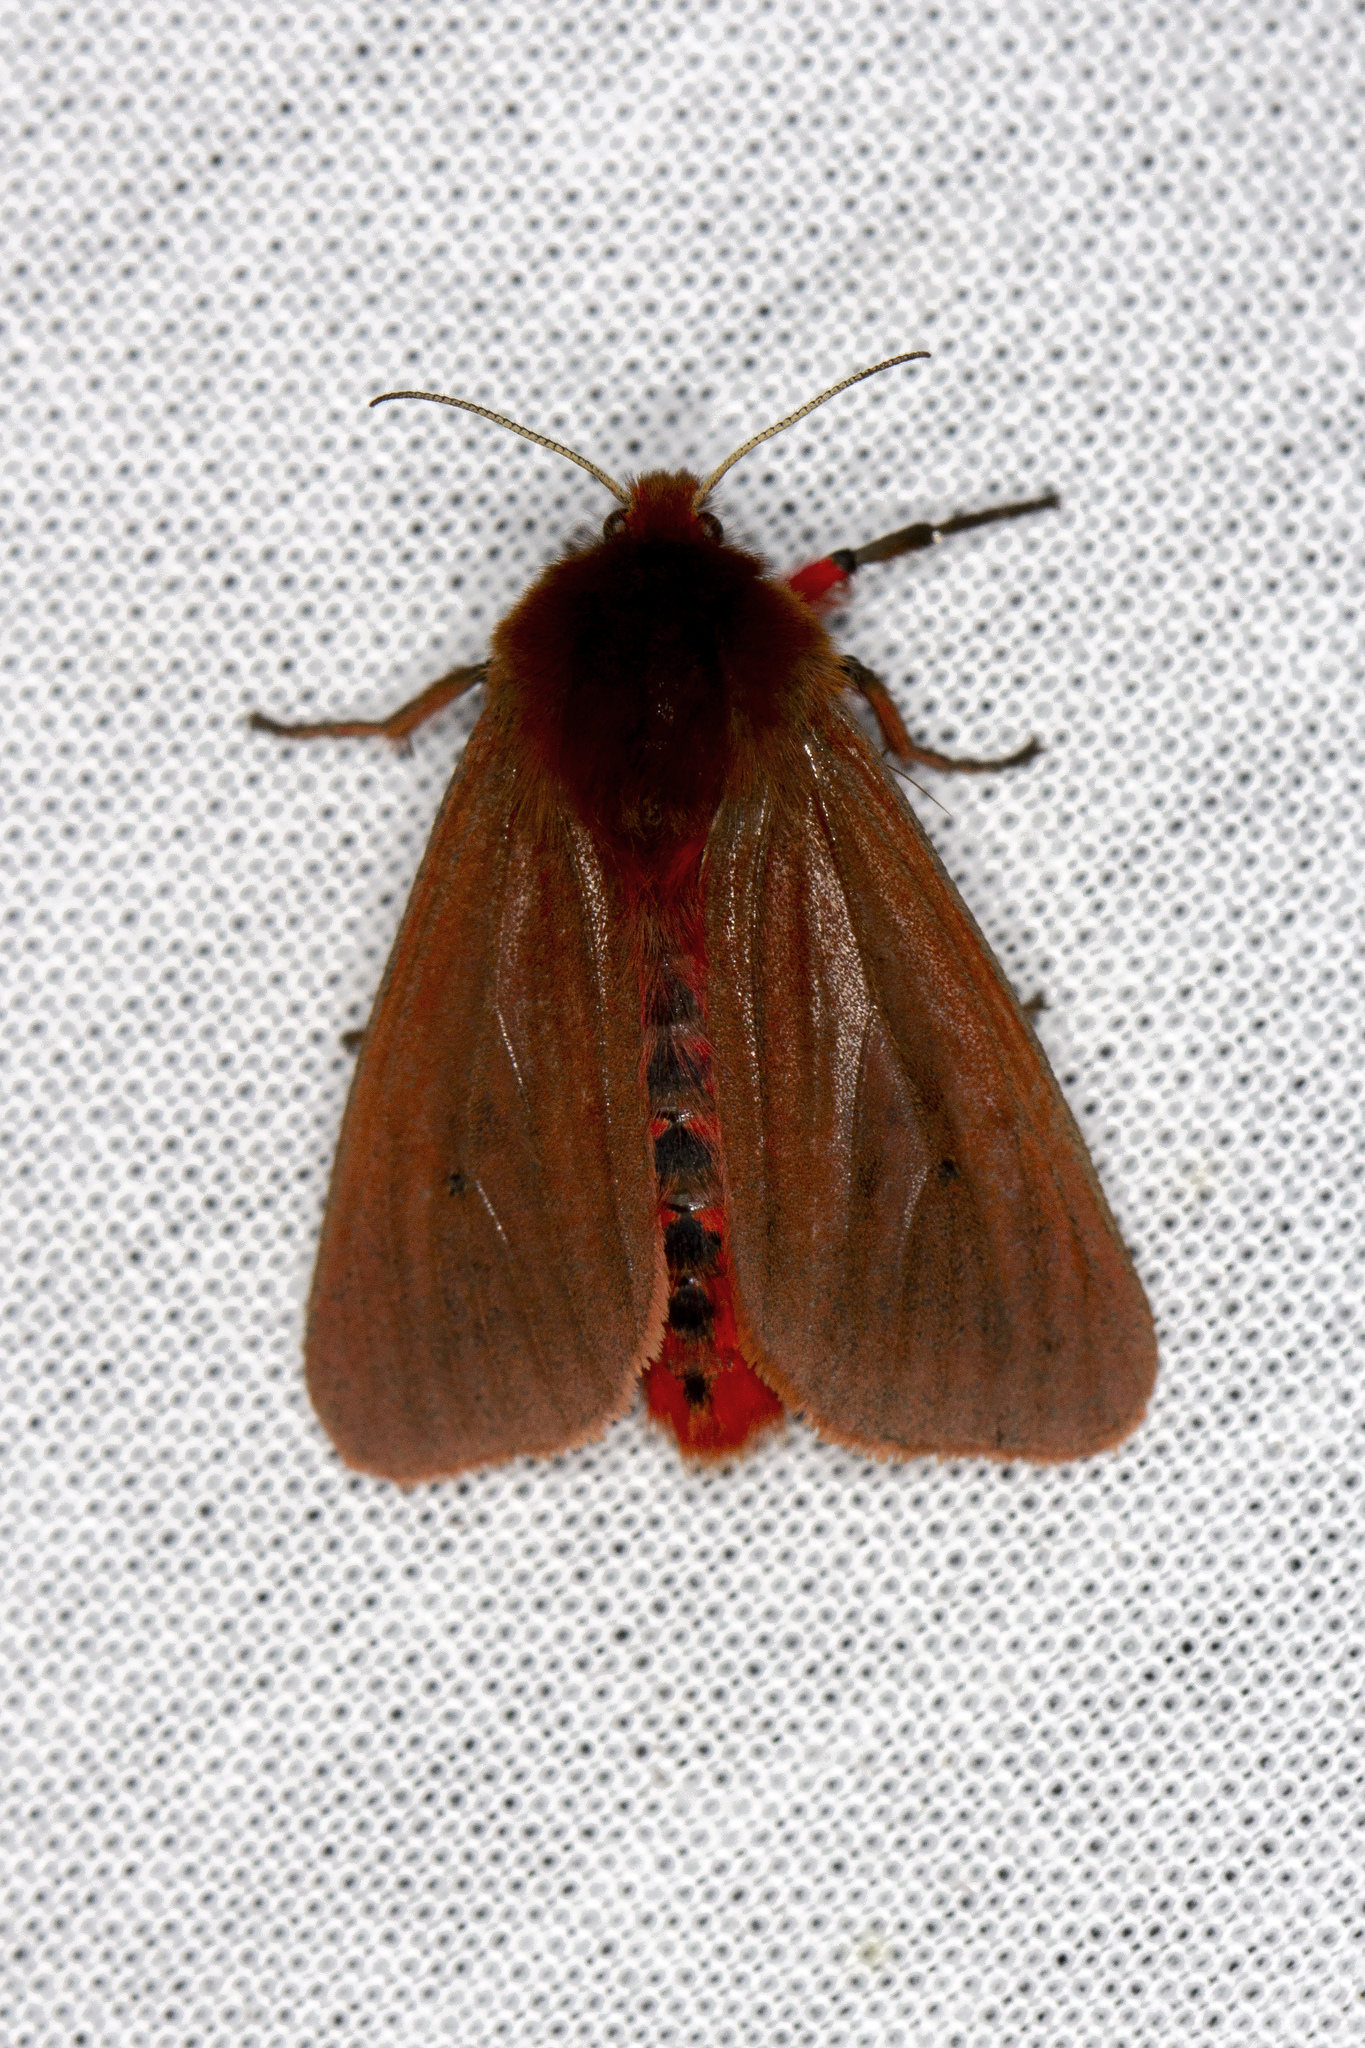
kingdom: Animalia
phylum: Arthropoda
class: Insecta
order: Lepidoptera
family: Erebidae
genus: Phragmatobia
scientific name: Phragmatobia fuliginosa
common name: Ruby tiger
